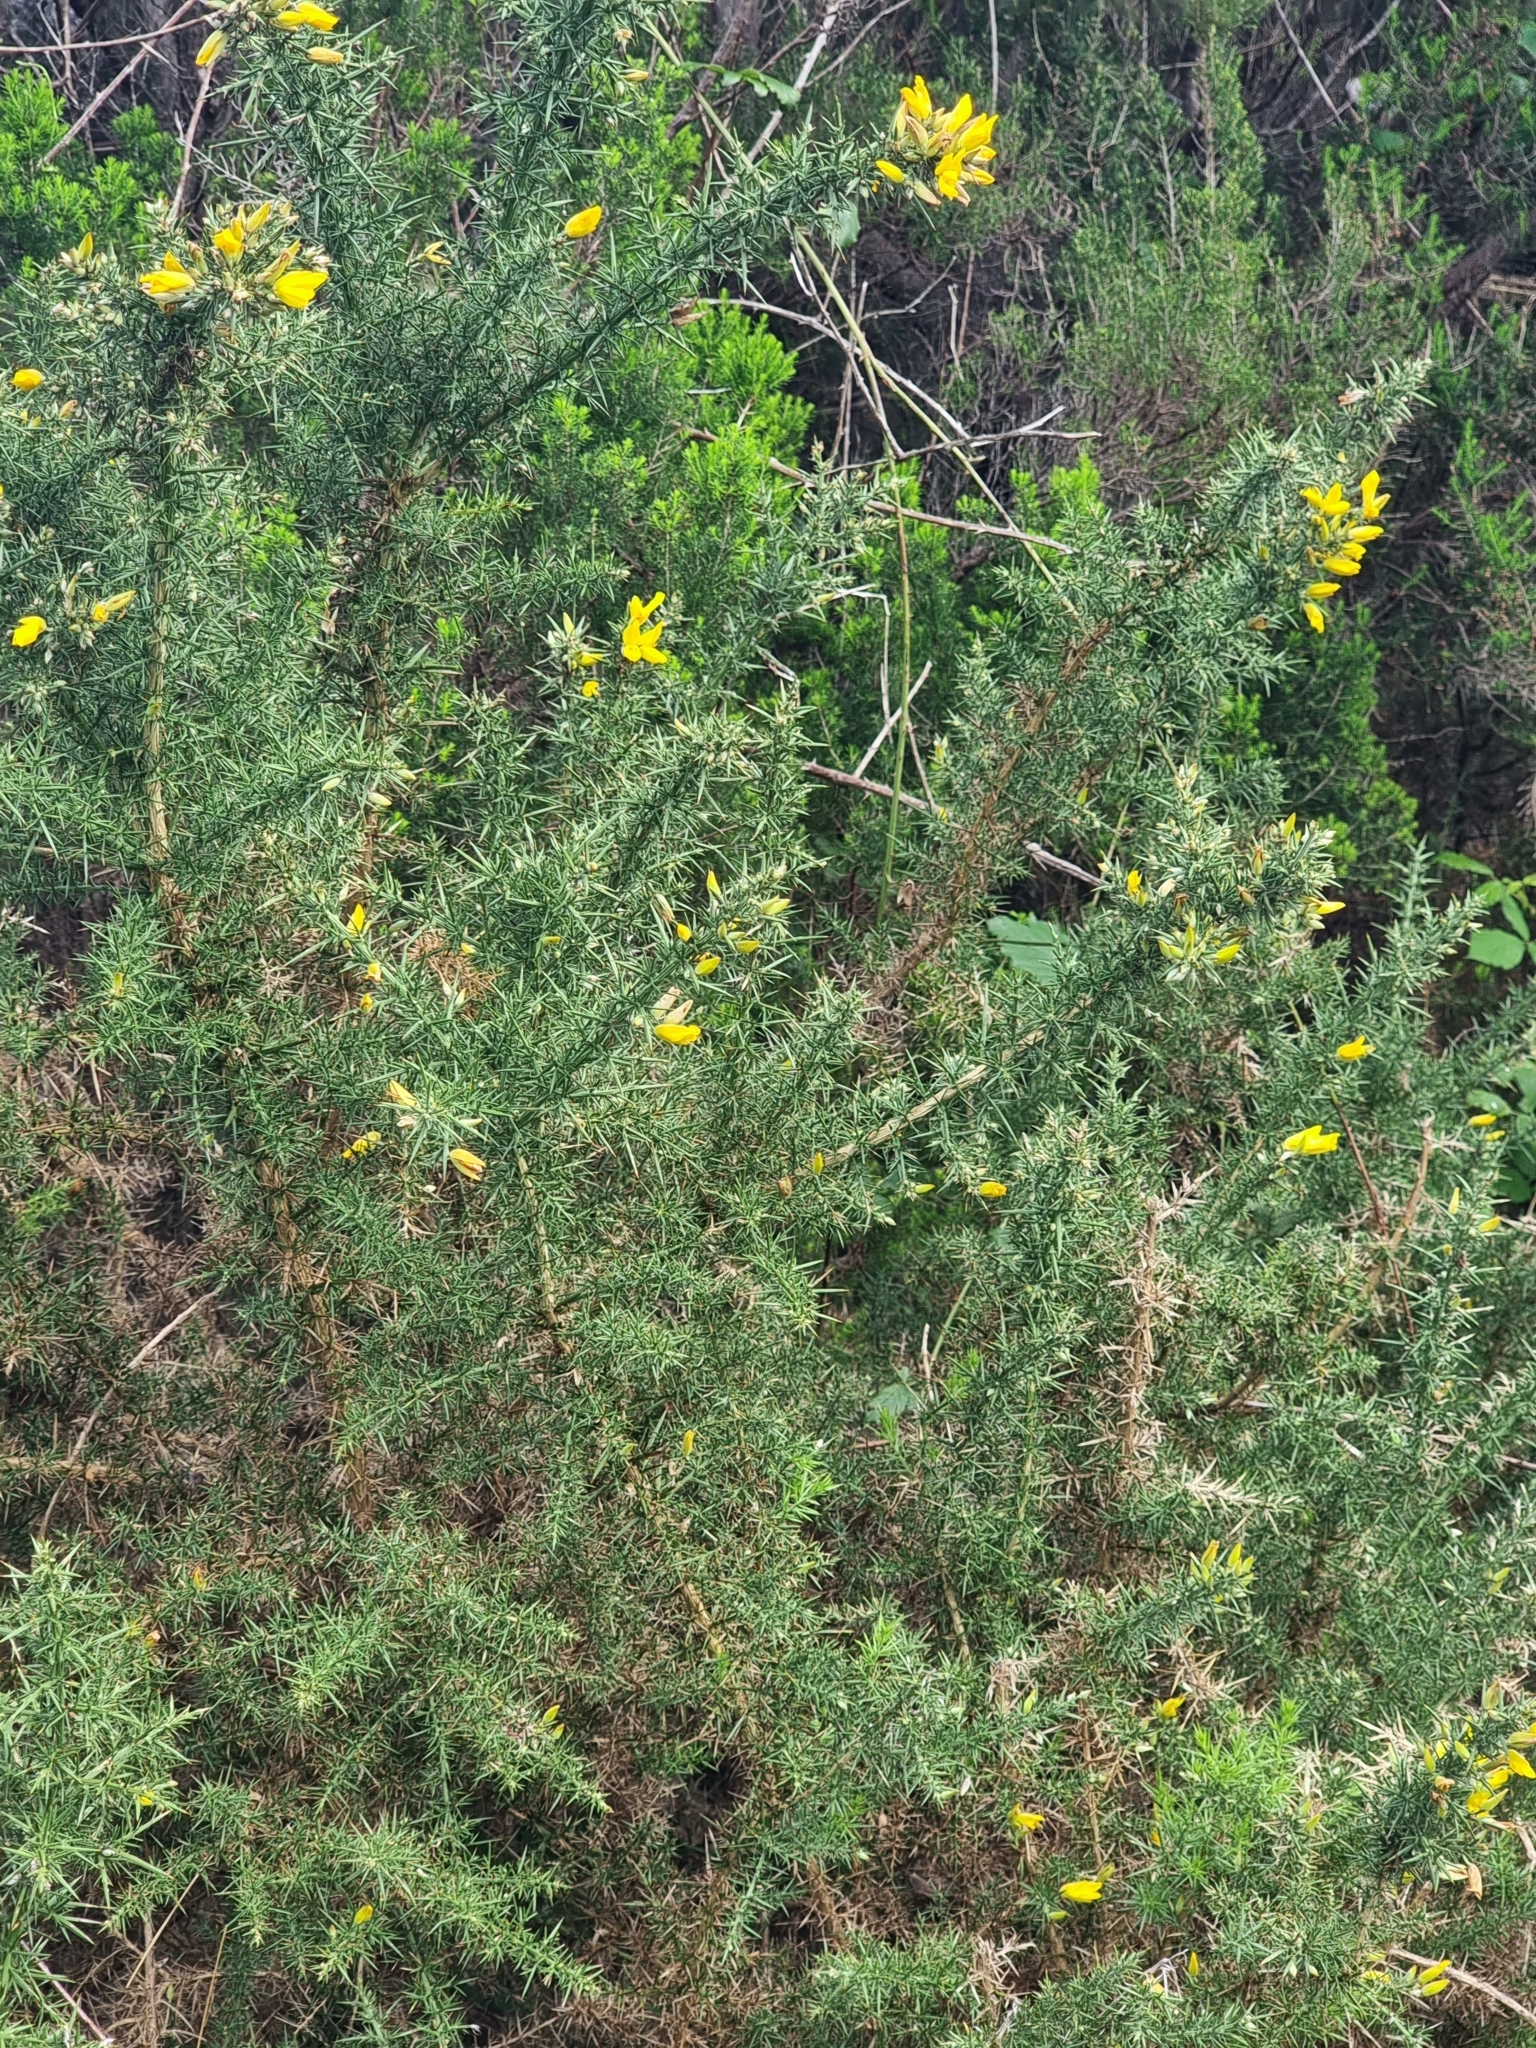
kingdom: Plantae
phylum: Tracheophyta
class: Magnoliopsida
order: Fabales
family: Fabaceae
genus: Ulex
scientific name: Ulex europaeus
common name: Common gorse
